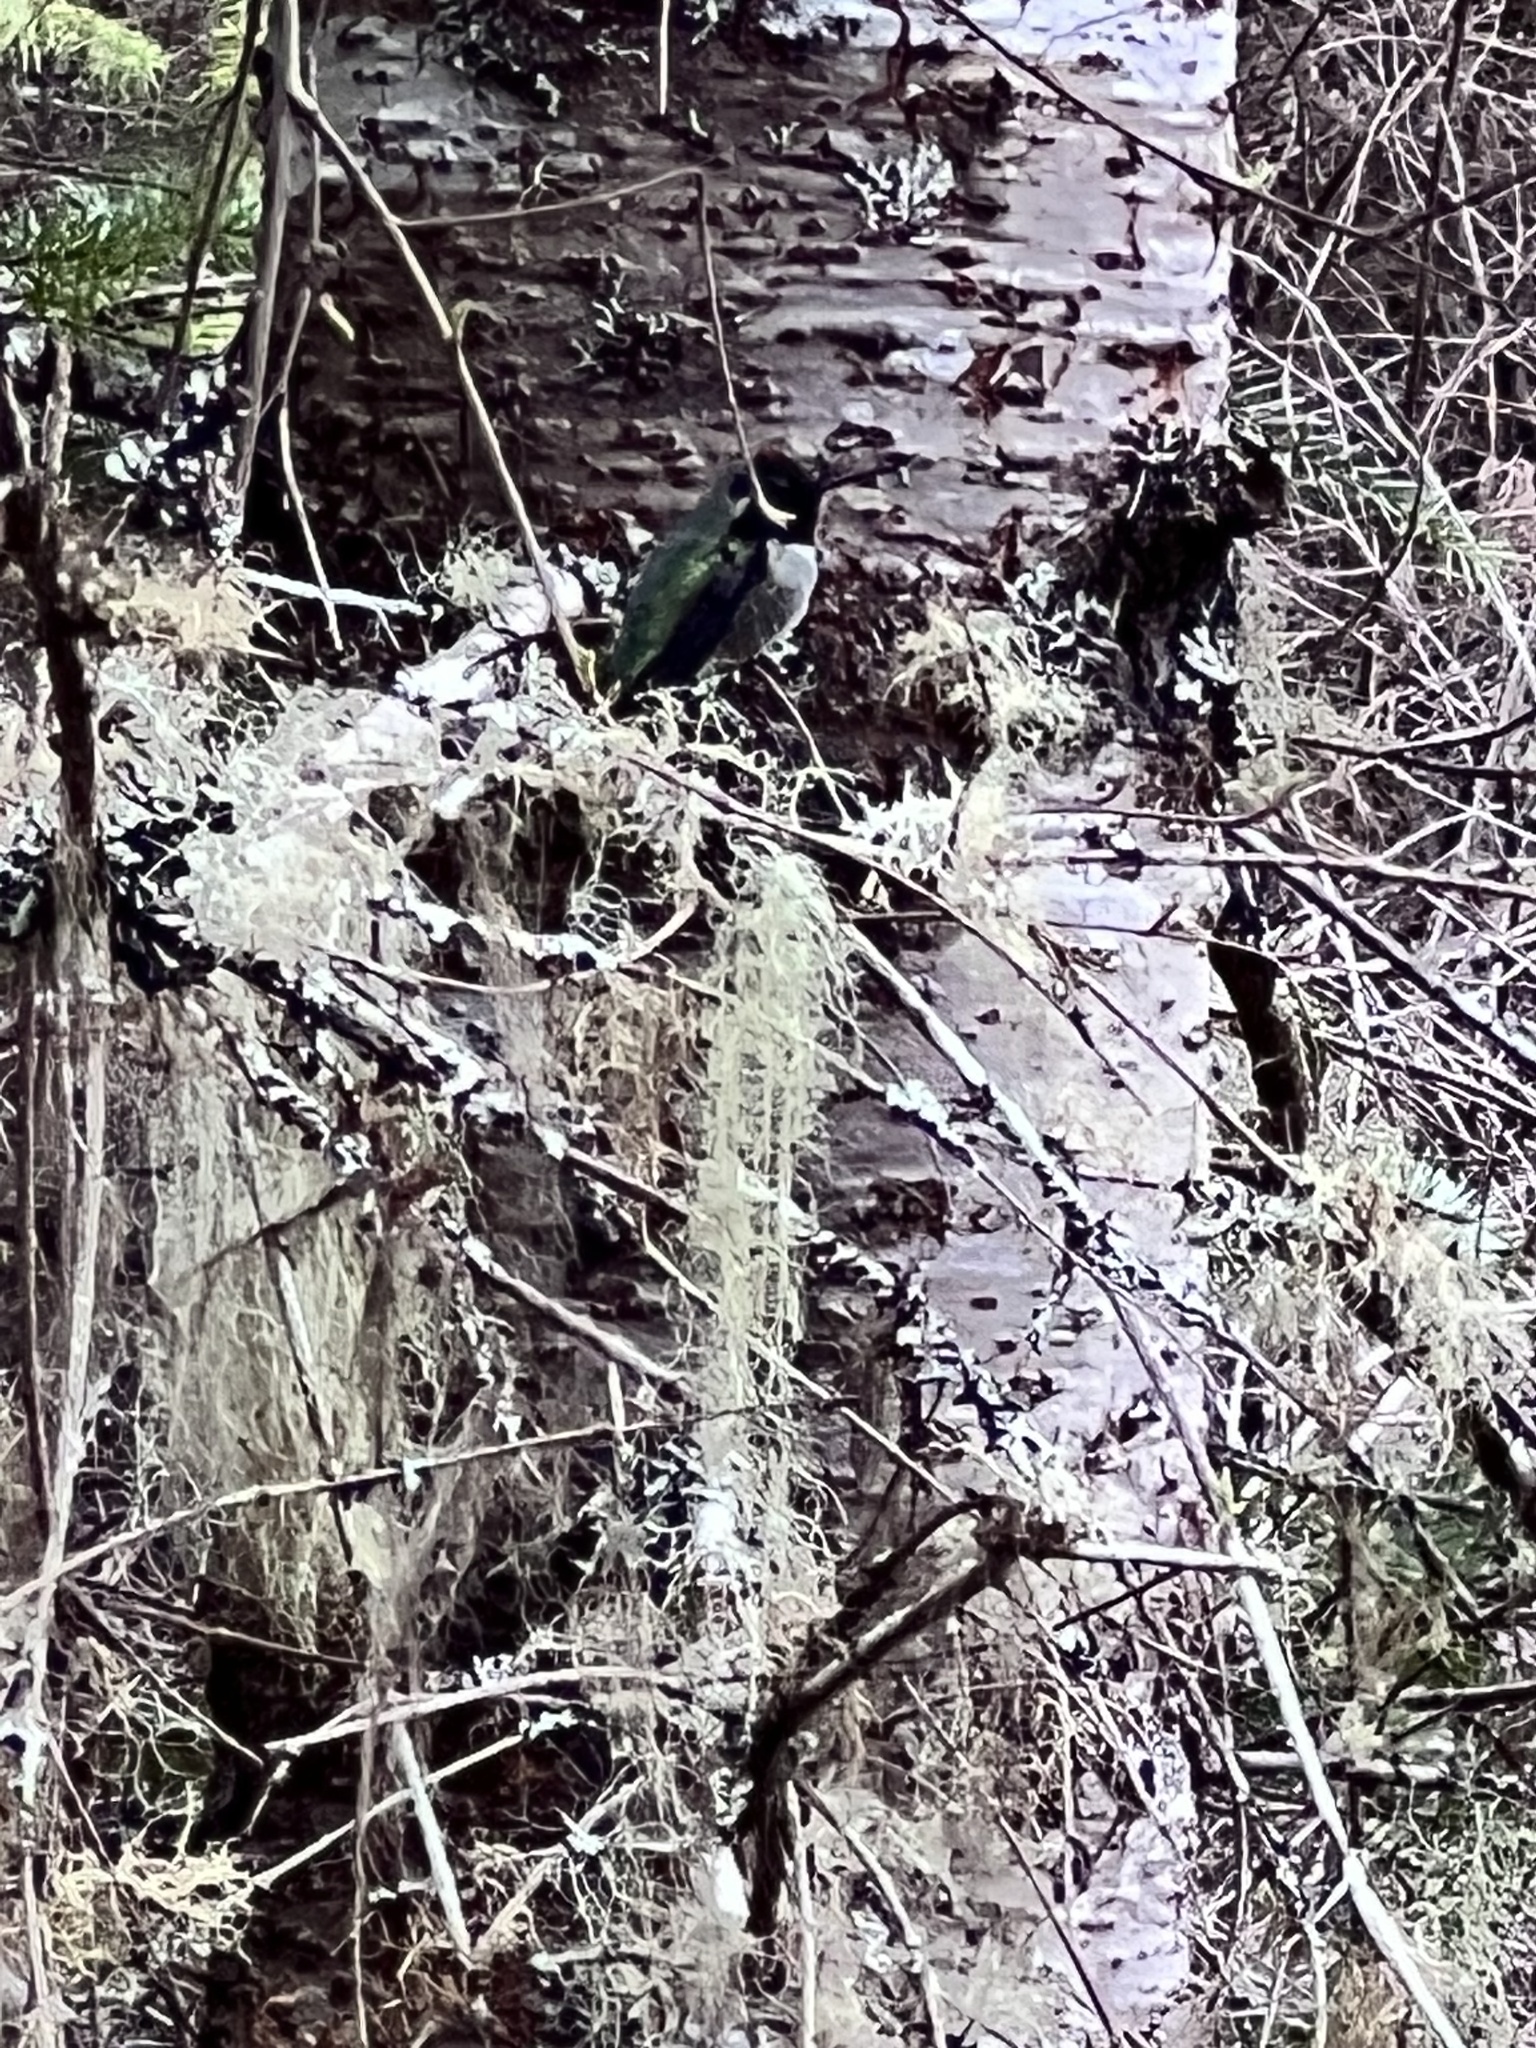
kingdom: Animalia
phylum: Chordata
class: Aves
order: Apodiformes
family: Trochilidae
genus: Calypte
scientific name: Calypte anna
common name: Anna's hummingbird
